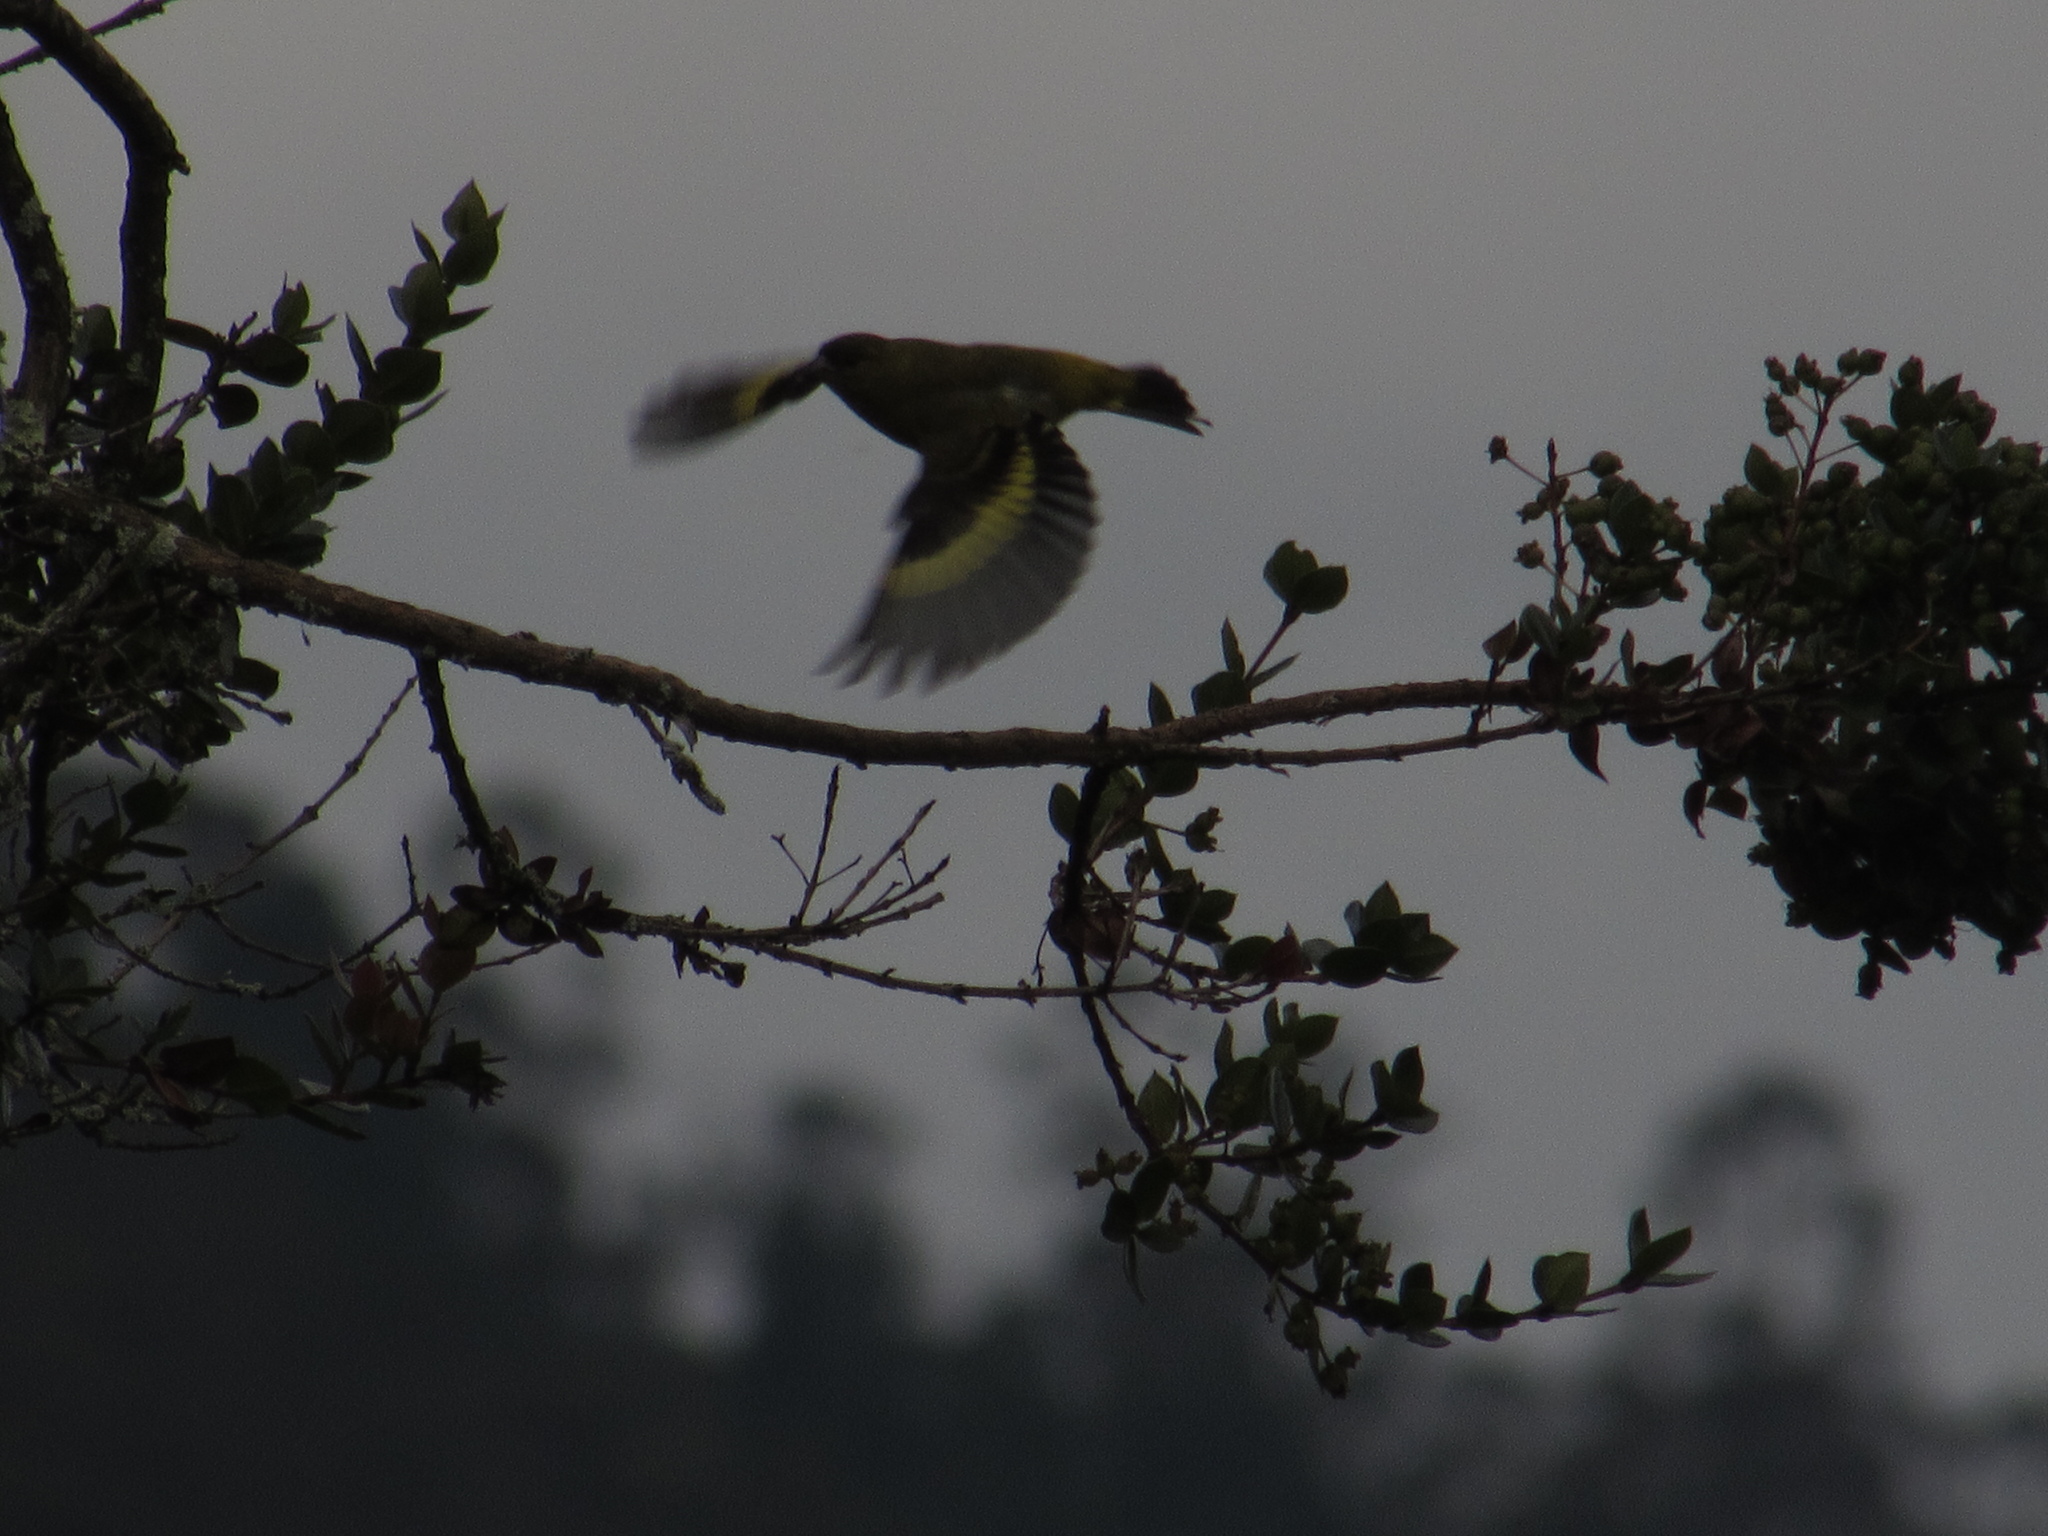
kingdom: Animalia
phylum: Chordata
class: Aves
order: Passeriformes
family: Fringillidae
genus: Spinus
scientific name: Spinus spinescens
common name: Andean siskin
